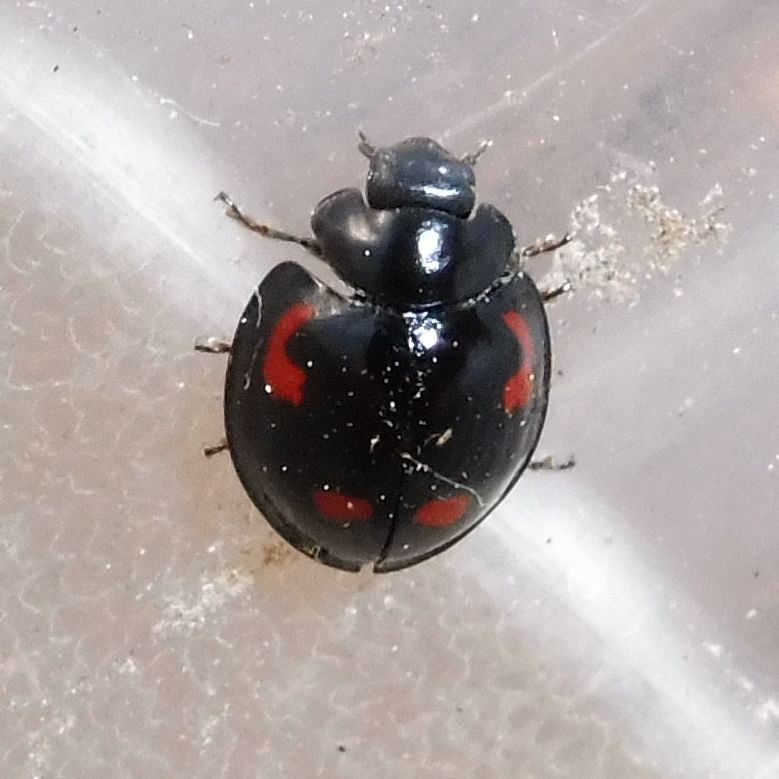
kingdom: Animalia
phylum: Arthropoda
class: Insecta
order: Coleoptera
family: Coccinellidae
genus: Brumus
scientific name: Brumus quadripustulatus
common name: Ladybird beetle
